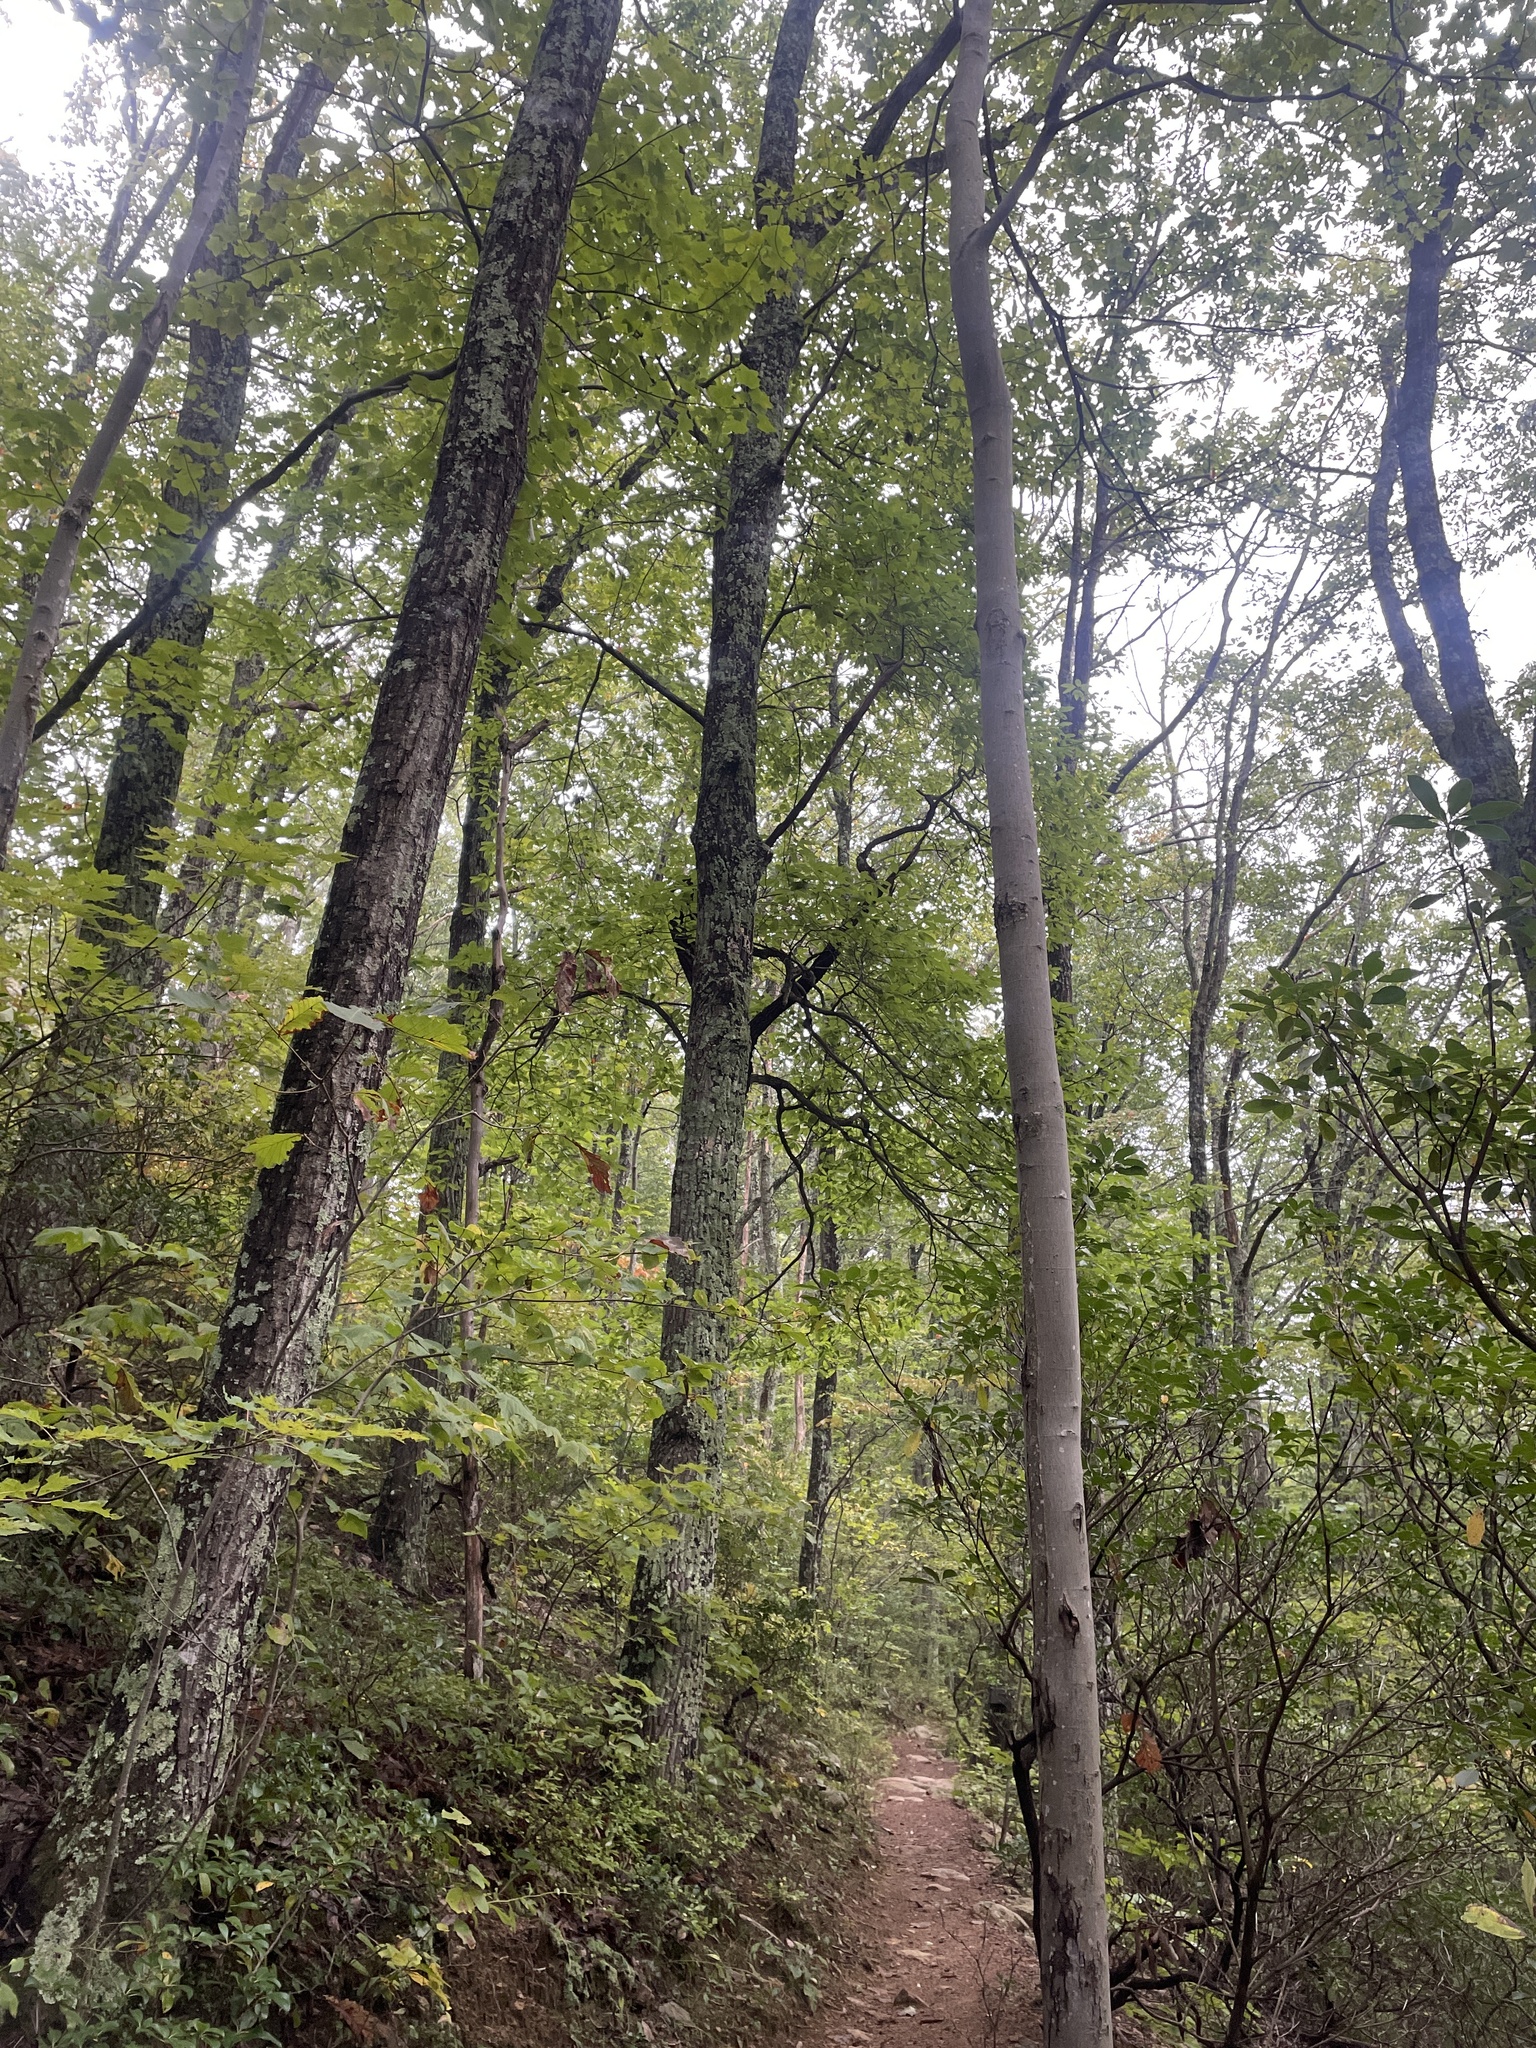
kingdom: Animalia
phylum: Chordata
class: Aves
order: Passeriformes
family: Sittidae
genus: Sitta
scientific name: Sitta carolinensis
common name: White-breasted nuthatch
